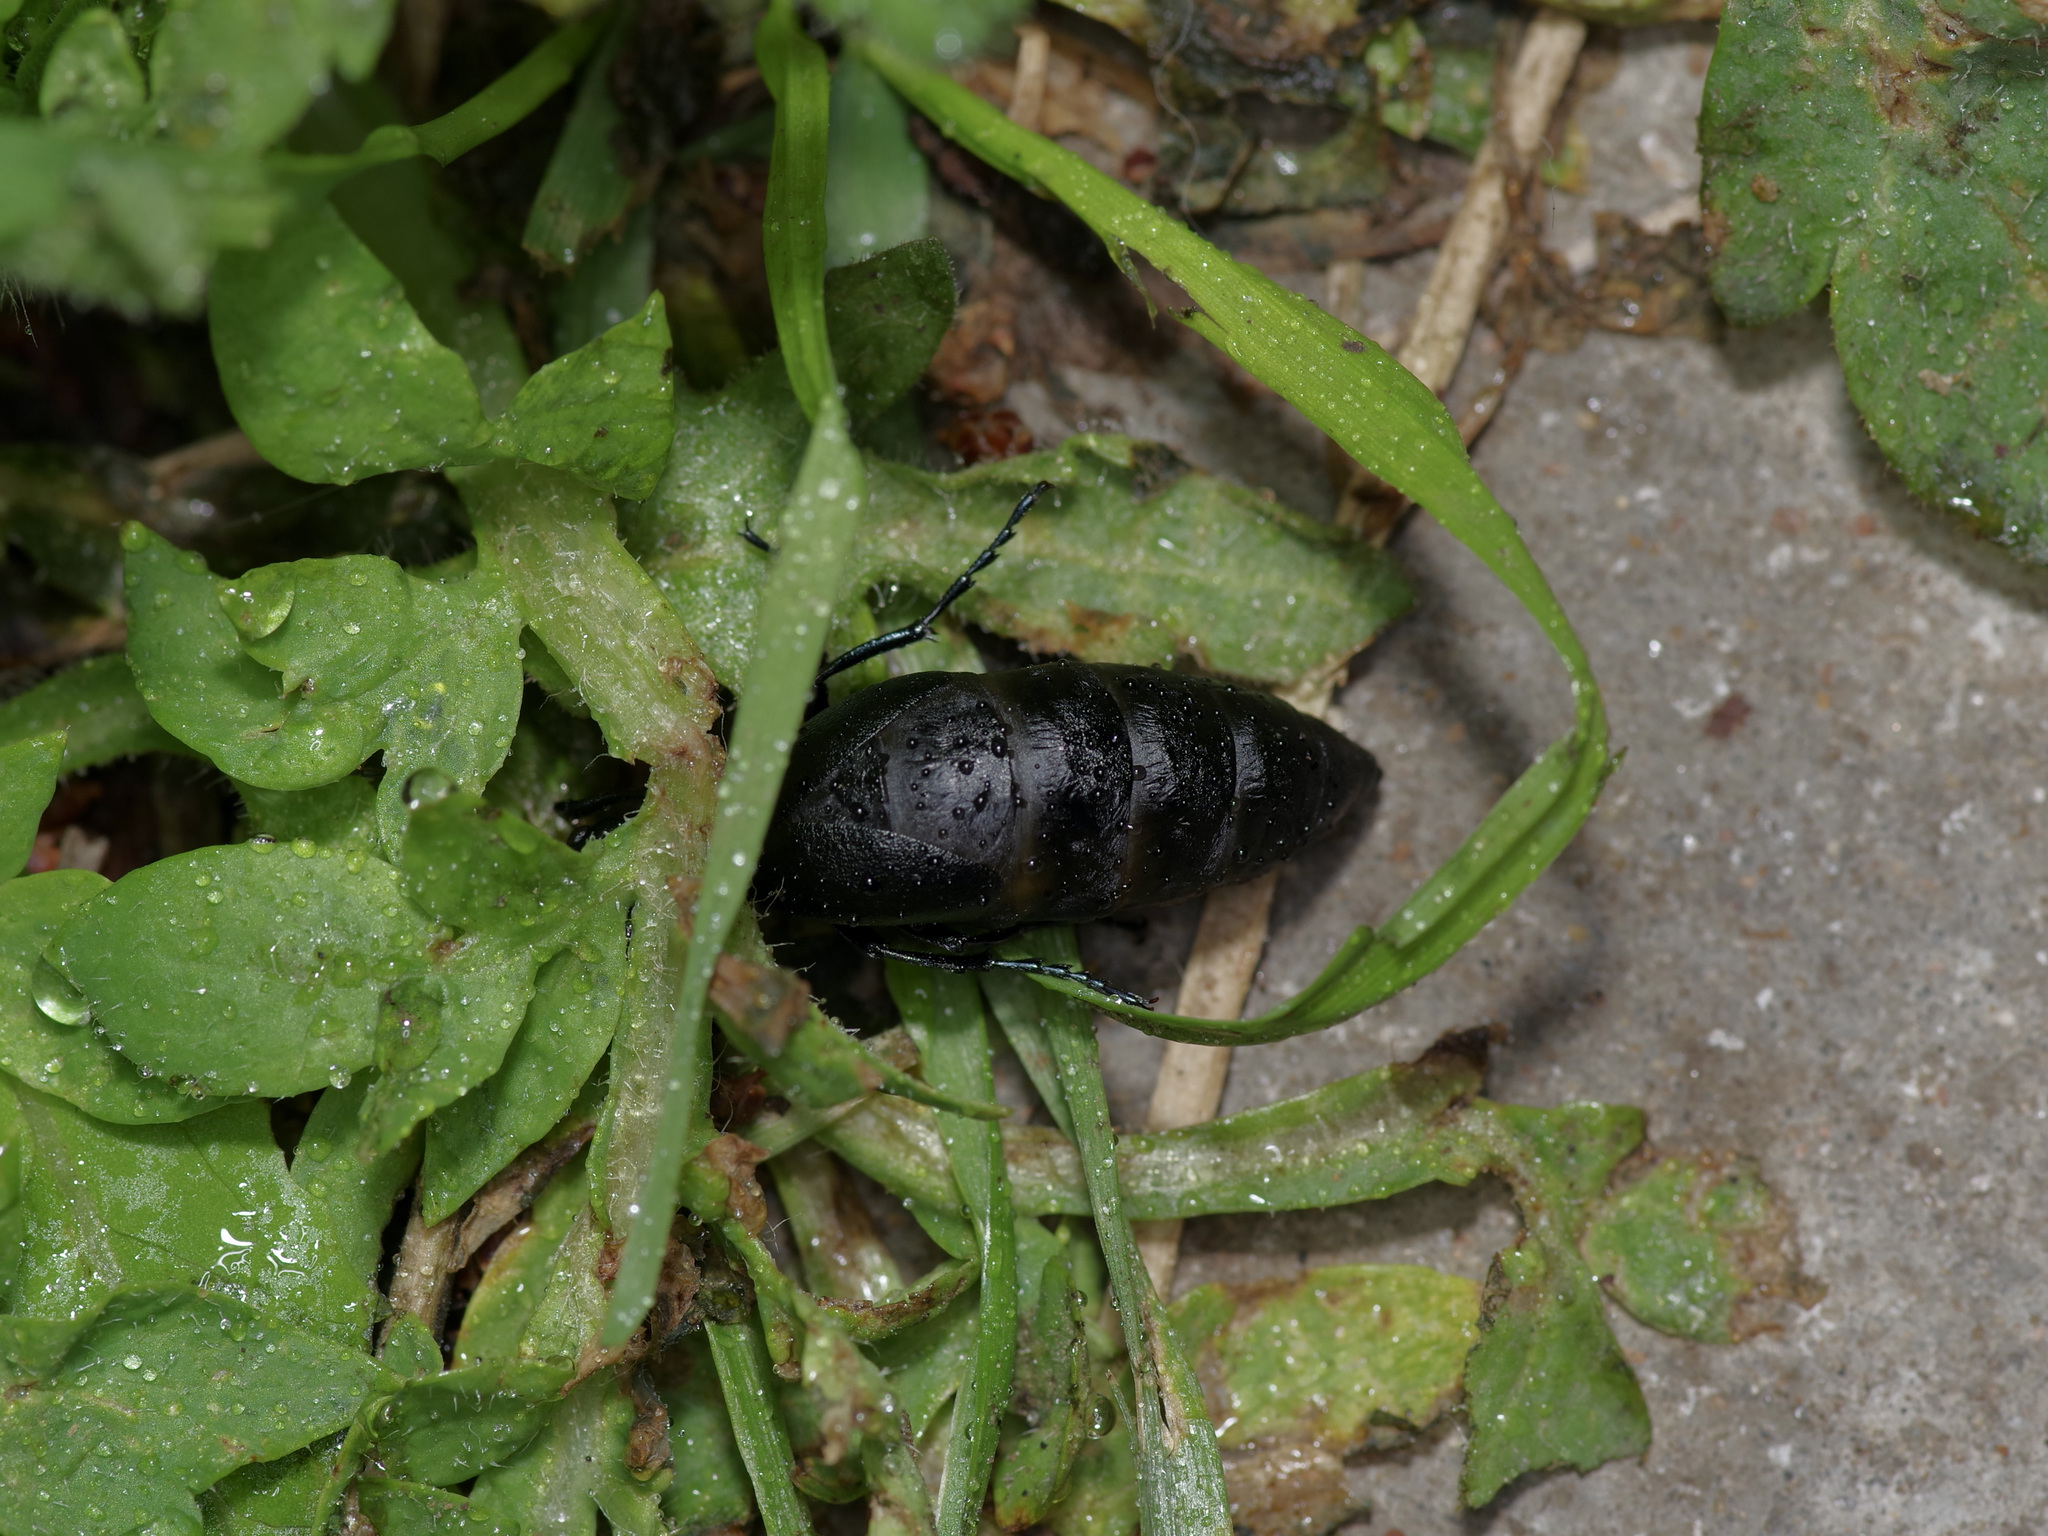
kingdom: Animalia
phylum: Arthropoda
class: Insecta
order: Coleoptera
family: Meloidae
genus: Meloe
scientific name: Meloe americanus
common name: Buttercup oil beetle
